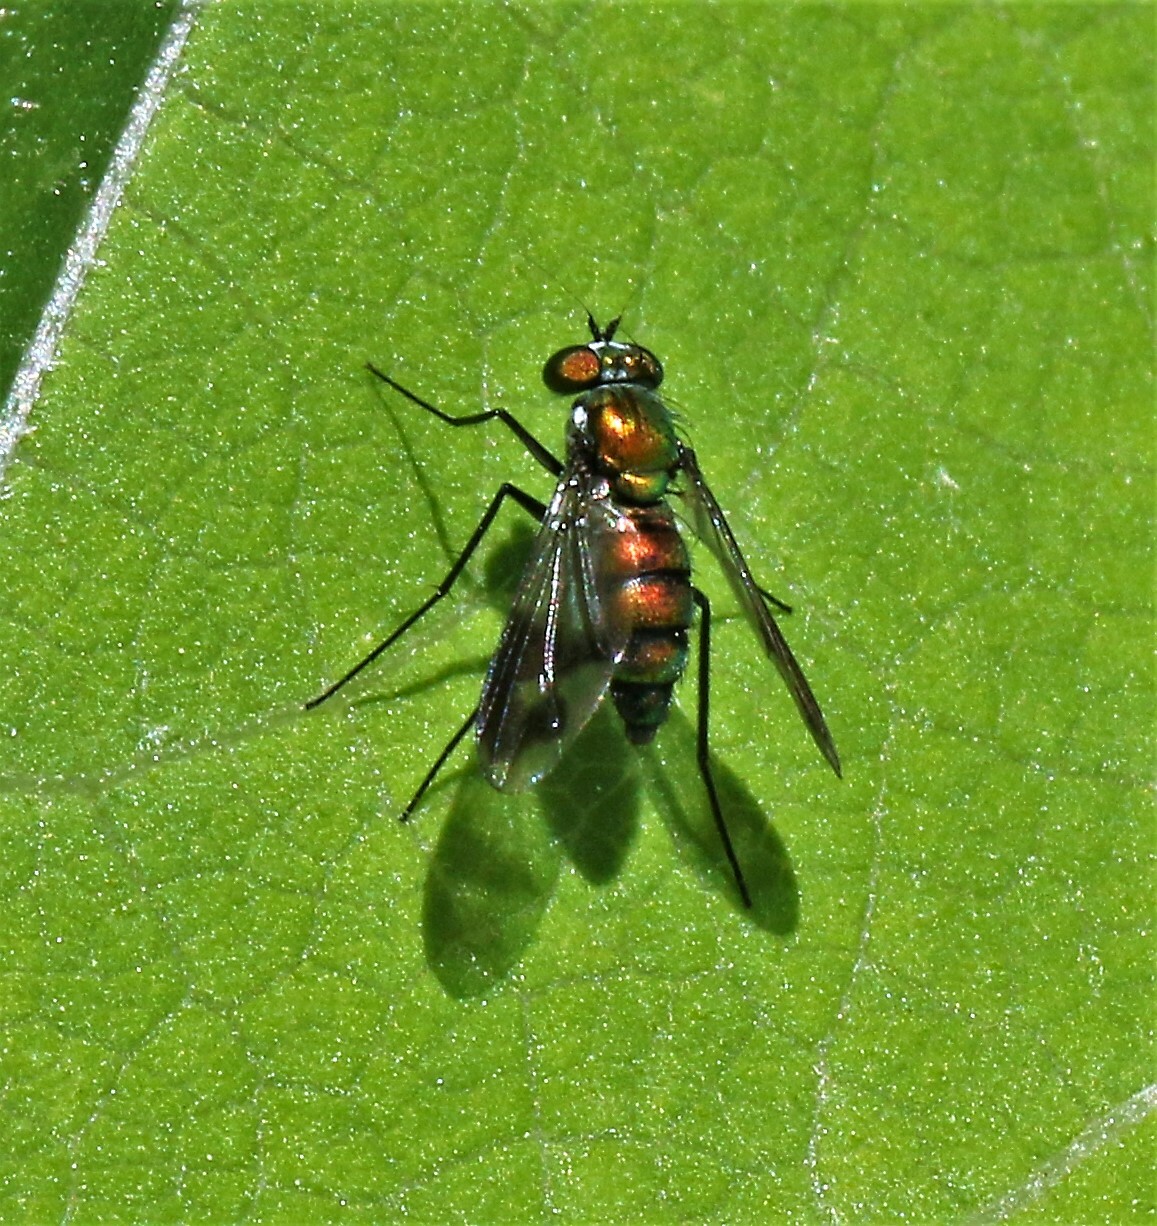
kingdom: Animalia
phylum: Arthropoda
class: Insecta
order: Diptera
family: Dolichopodidae
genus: Condylostylus
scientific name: Condylostylus patibulatus
